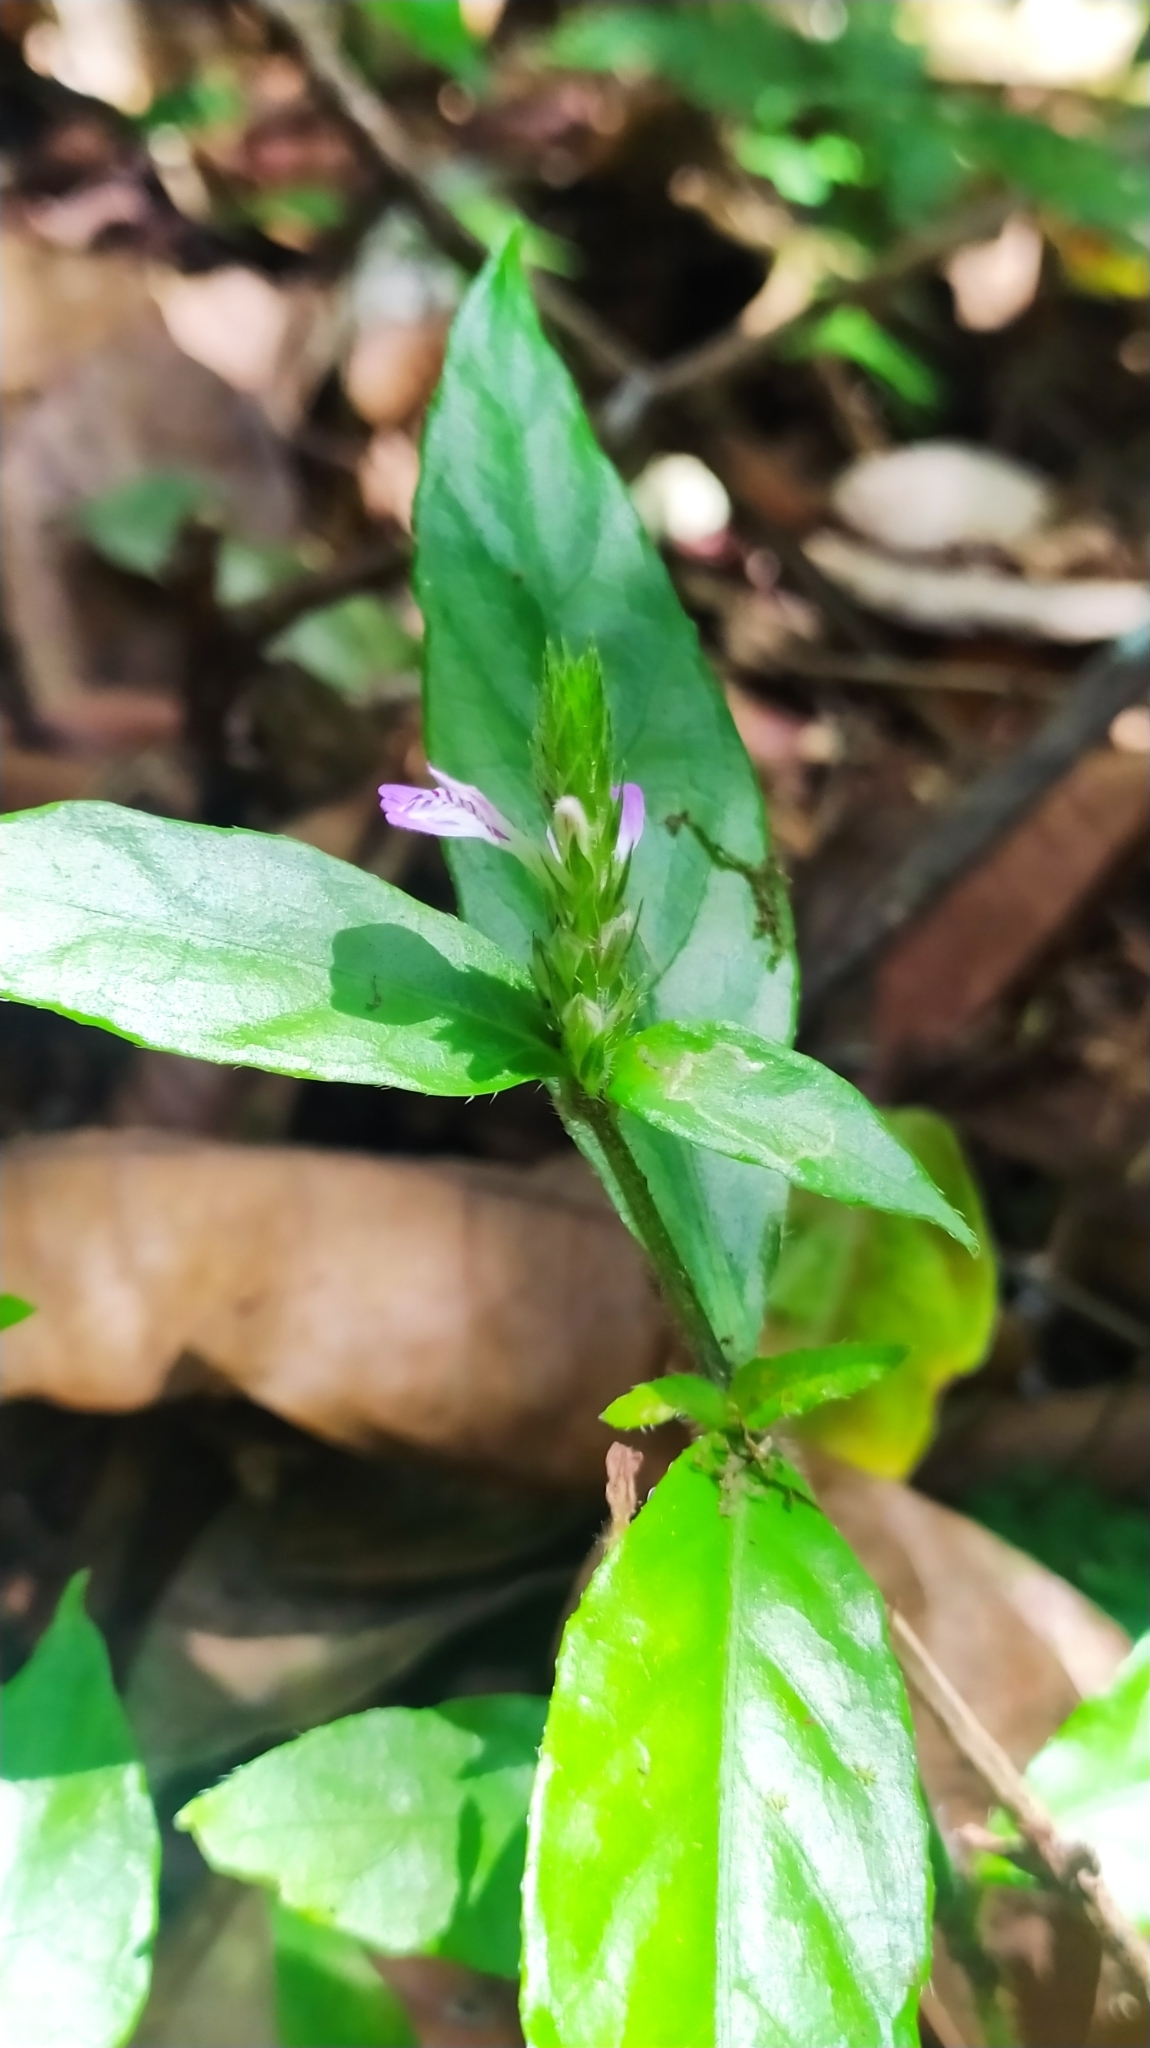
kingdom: Plantae
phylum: Tracheophyta
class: Magnoliopsida
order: Lamiales
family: Acanthaceae
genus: Dianthera
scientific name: Dianthera cayennensis
